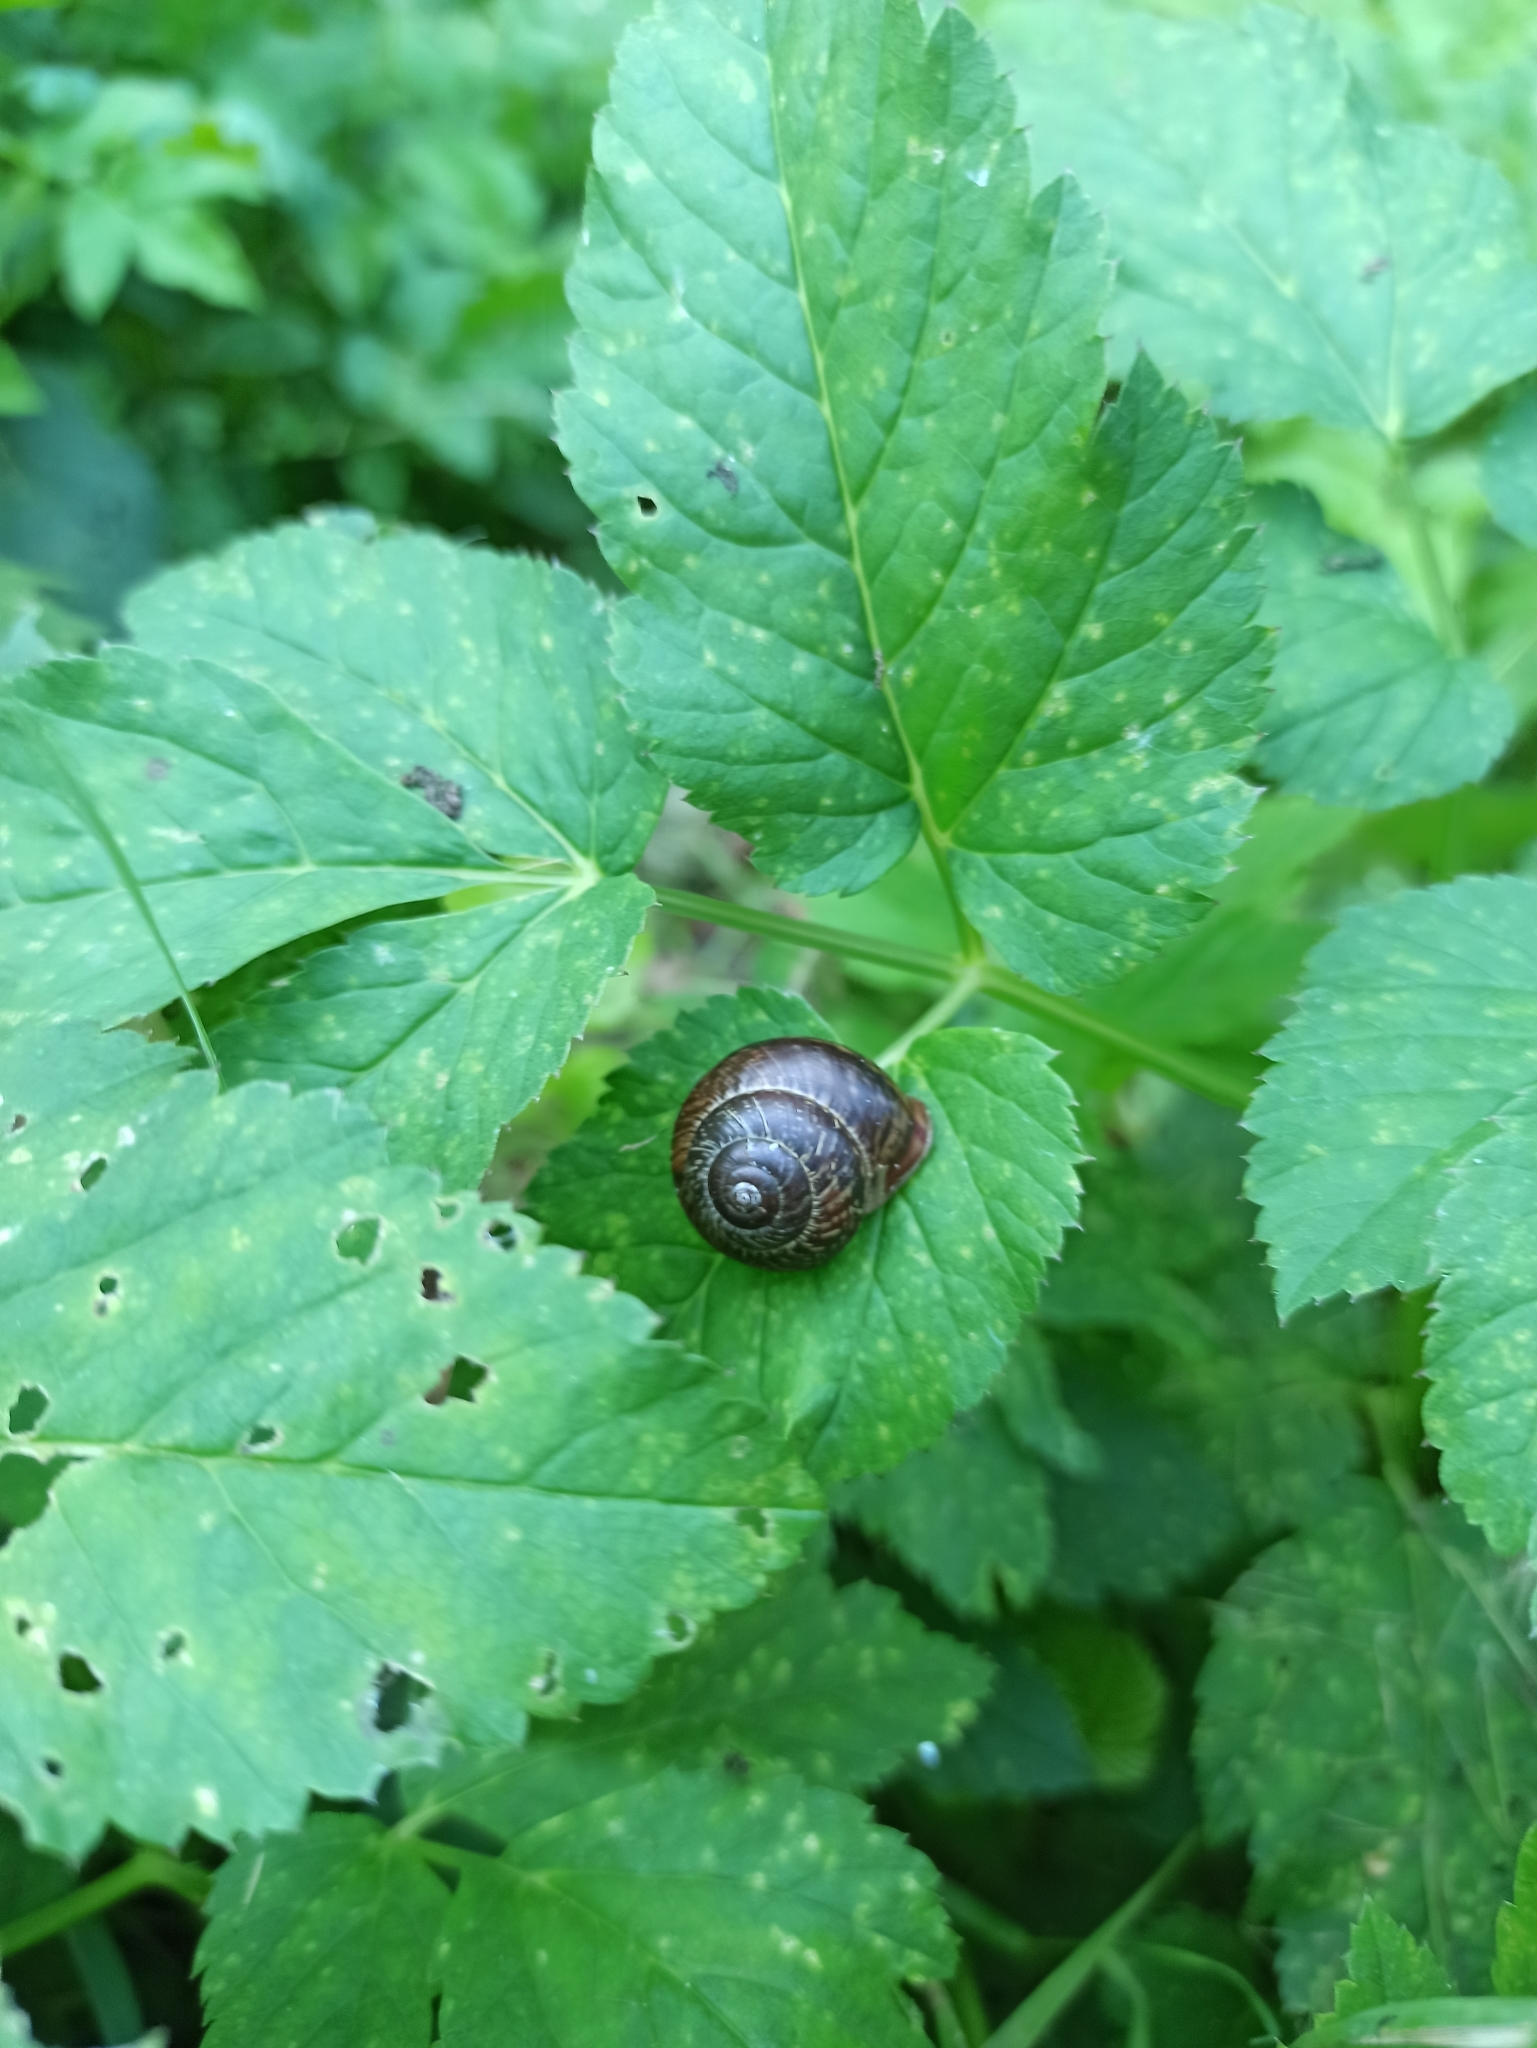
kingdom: Animalia
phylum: Mollusca
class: Gastropoda
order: Stylommatophora
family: Helicidae
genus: Arianta
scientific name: Arianta arbustorum
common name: Copse snail
